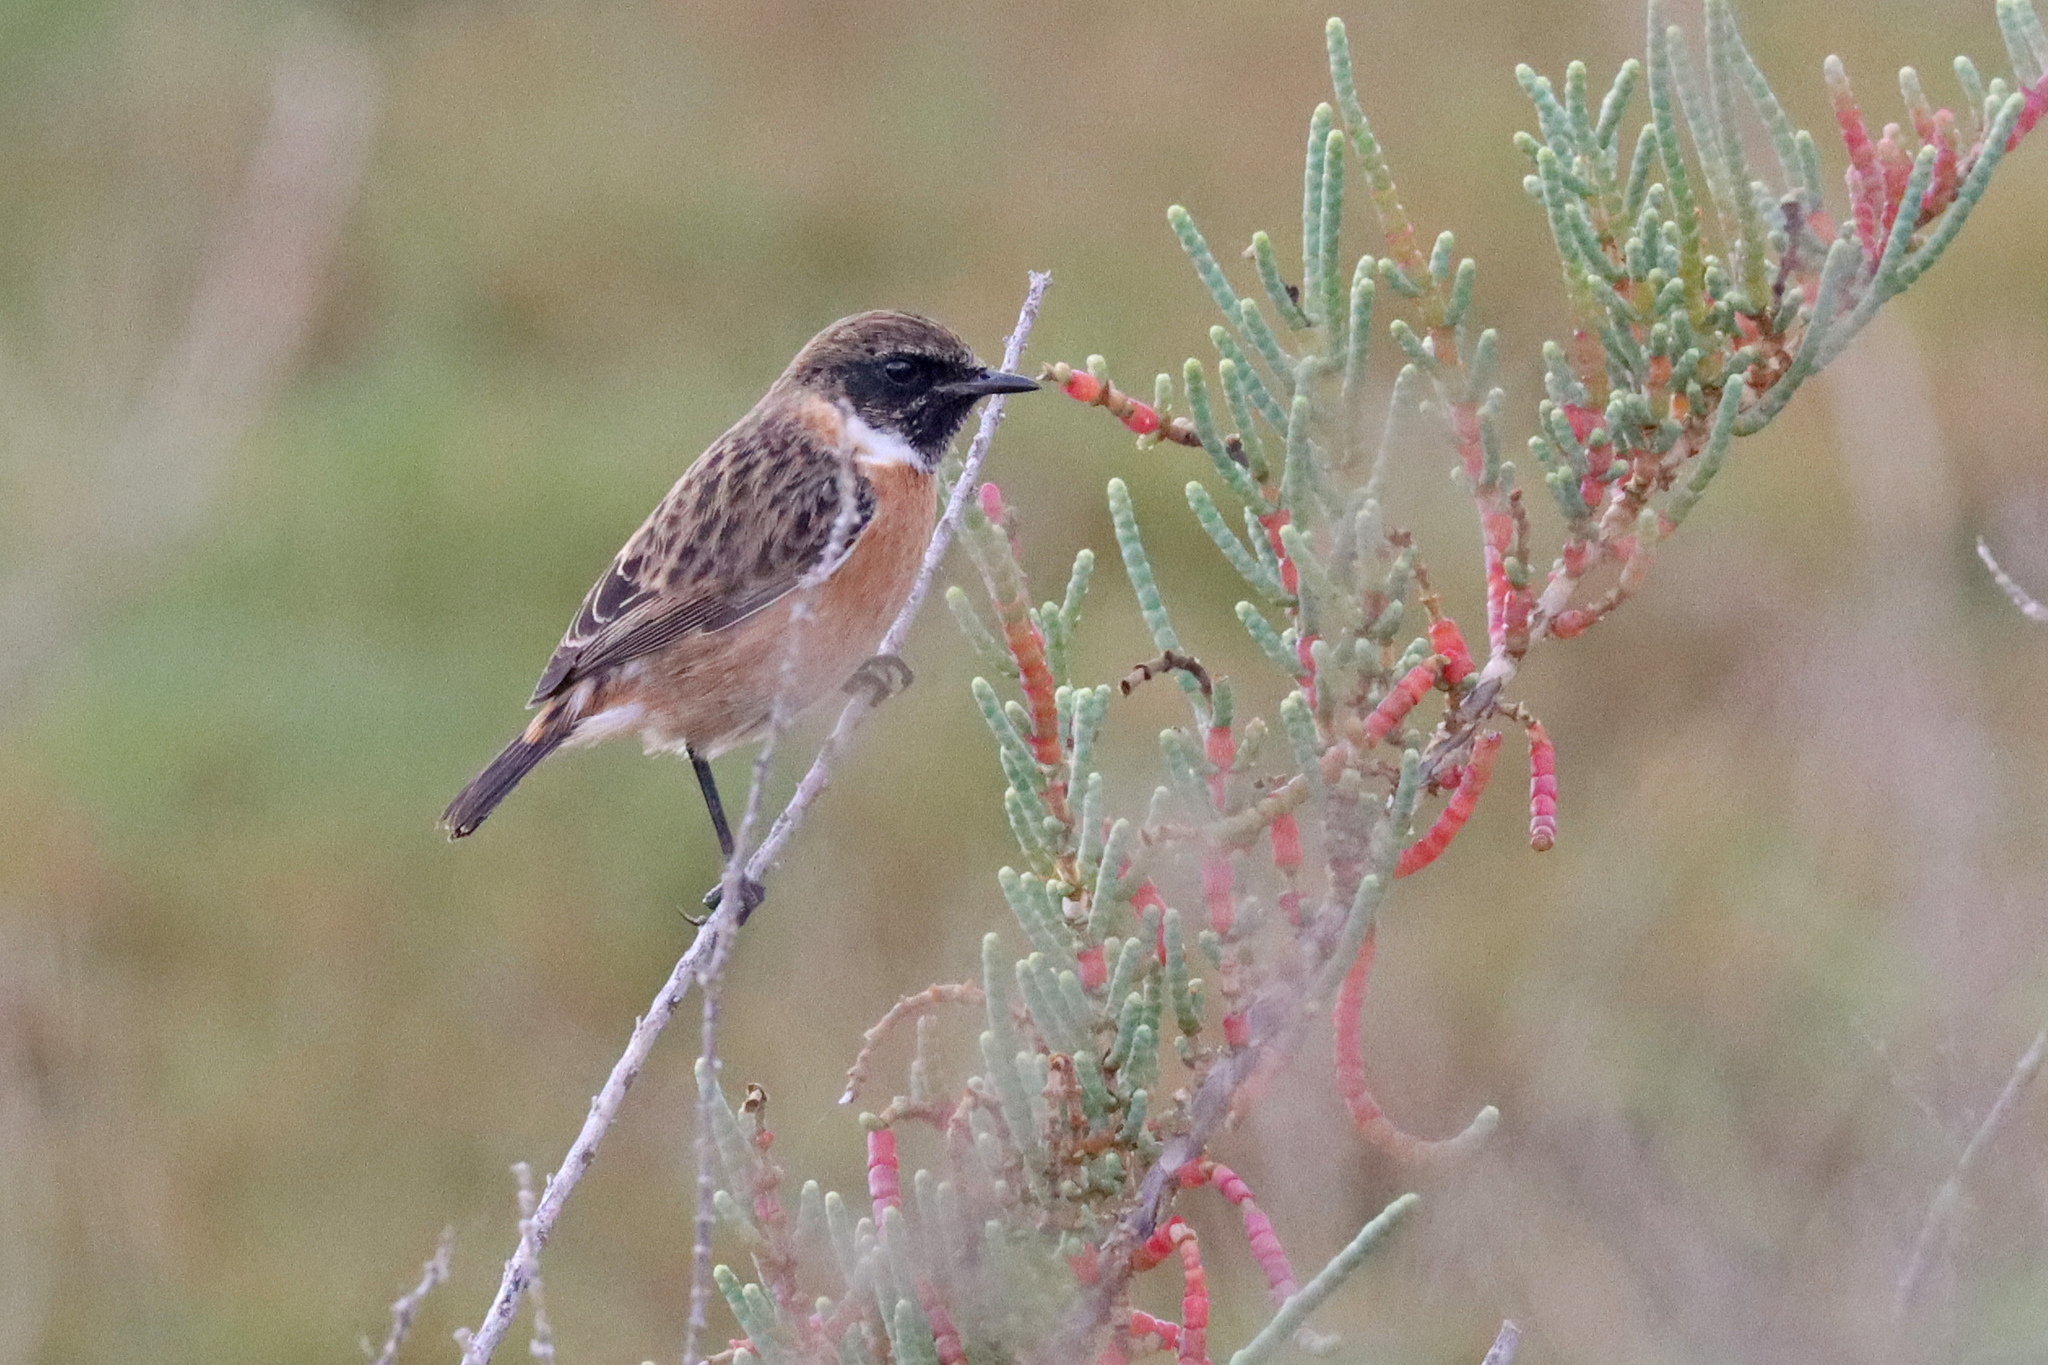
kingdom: Animalia
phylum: Chordata
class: Aves
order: Passeriformes
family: Muscicapidae
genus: Saxicola
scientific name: Saxicola rubicola
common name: European stonechat
